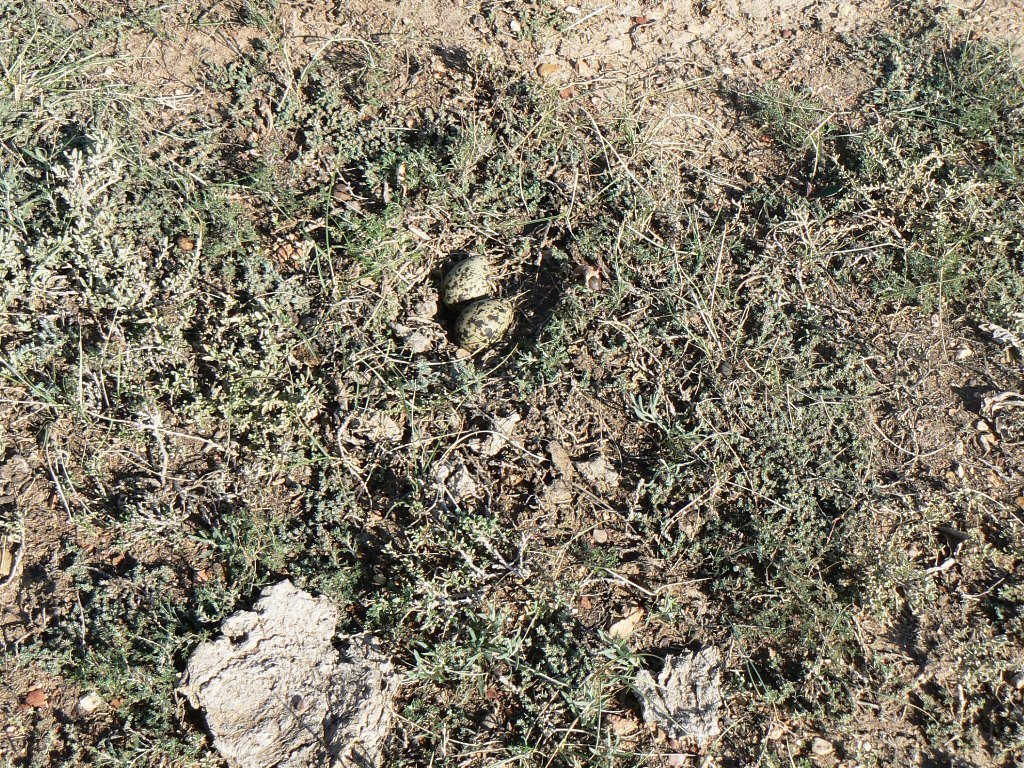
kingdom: Animalia
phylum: Chordata
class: Aves
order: Charadriiformes
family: Charadriidae
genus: Vanellus
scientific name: Vanellus gregarius
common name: Sociable lapwing
